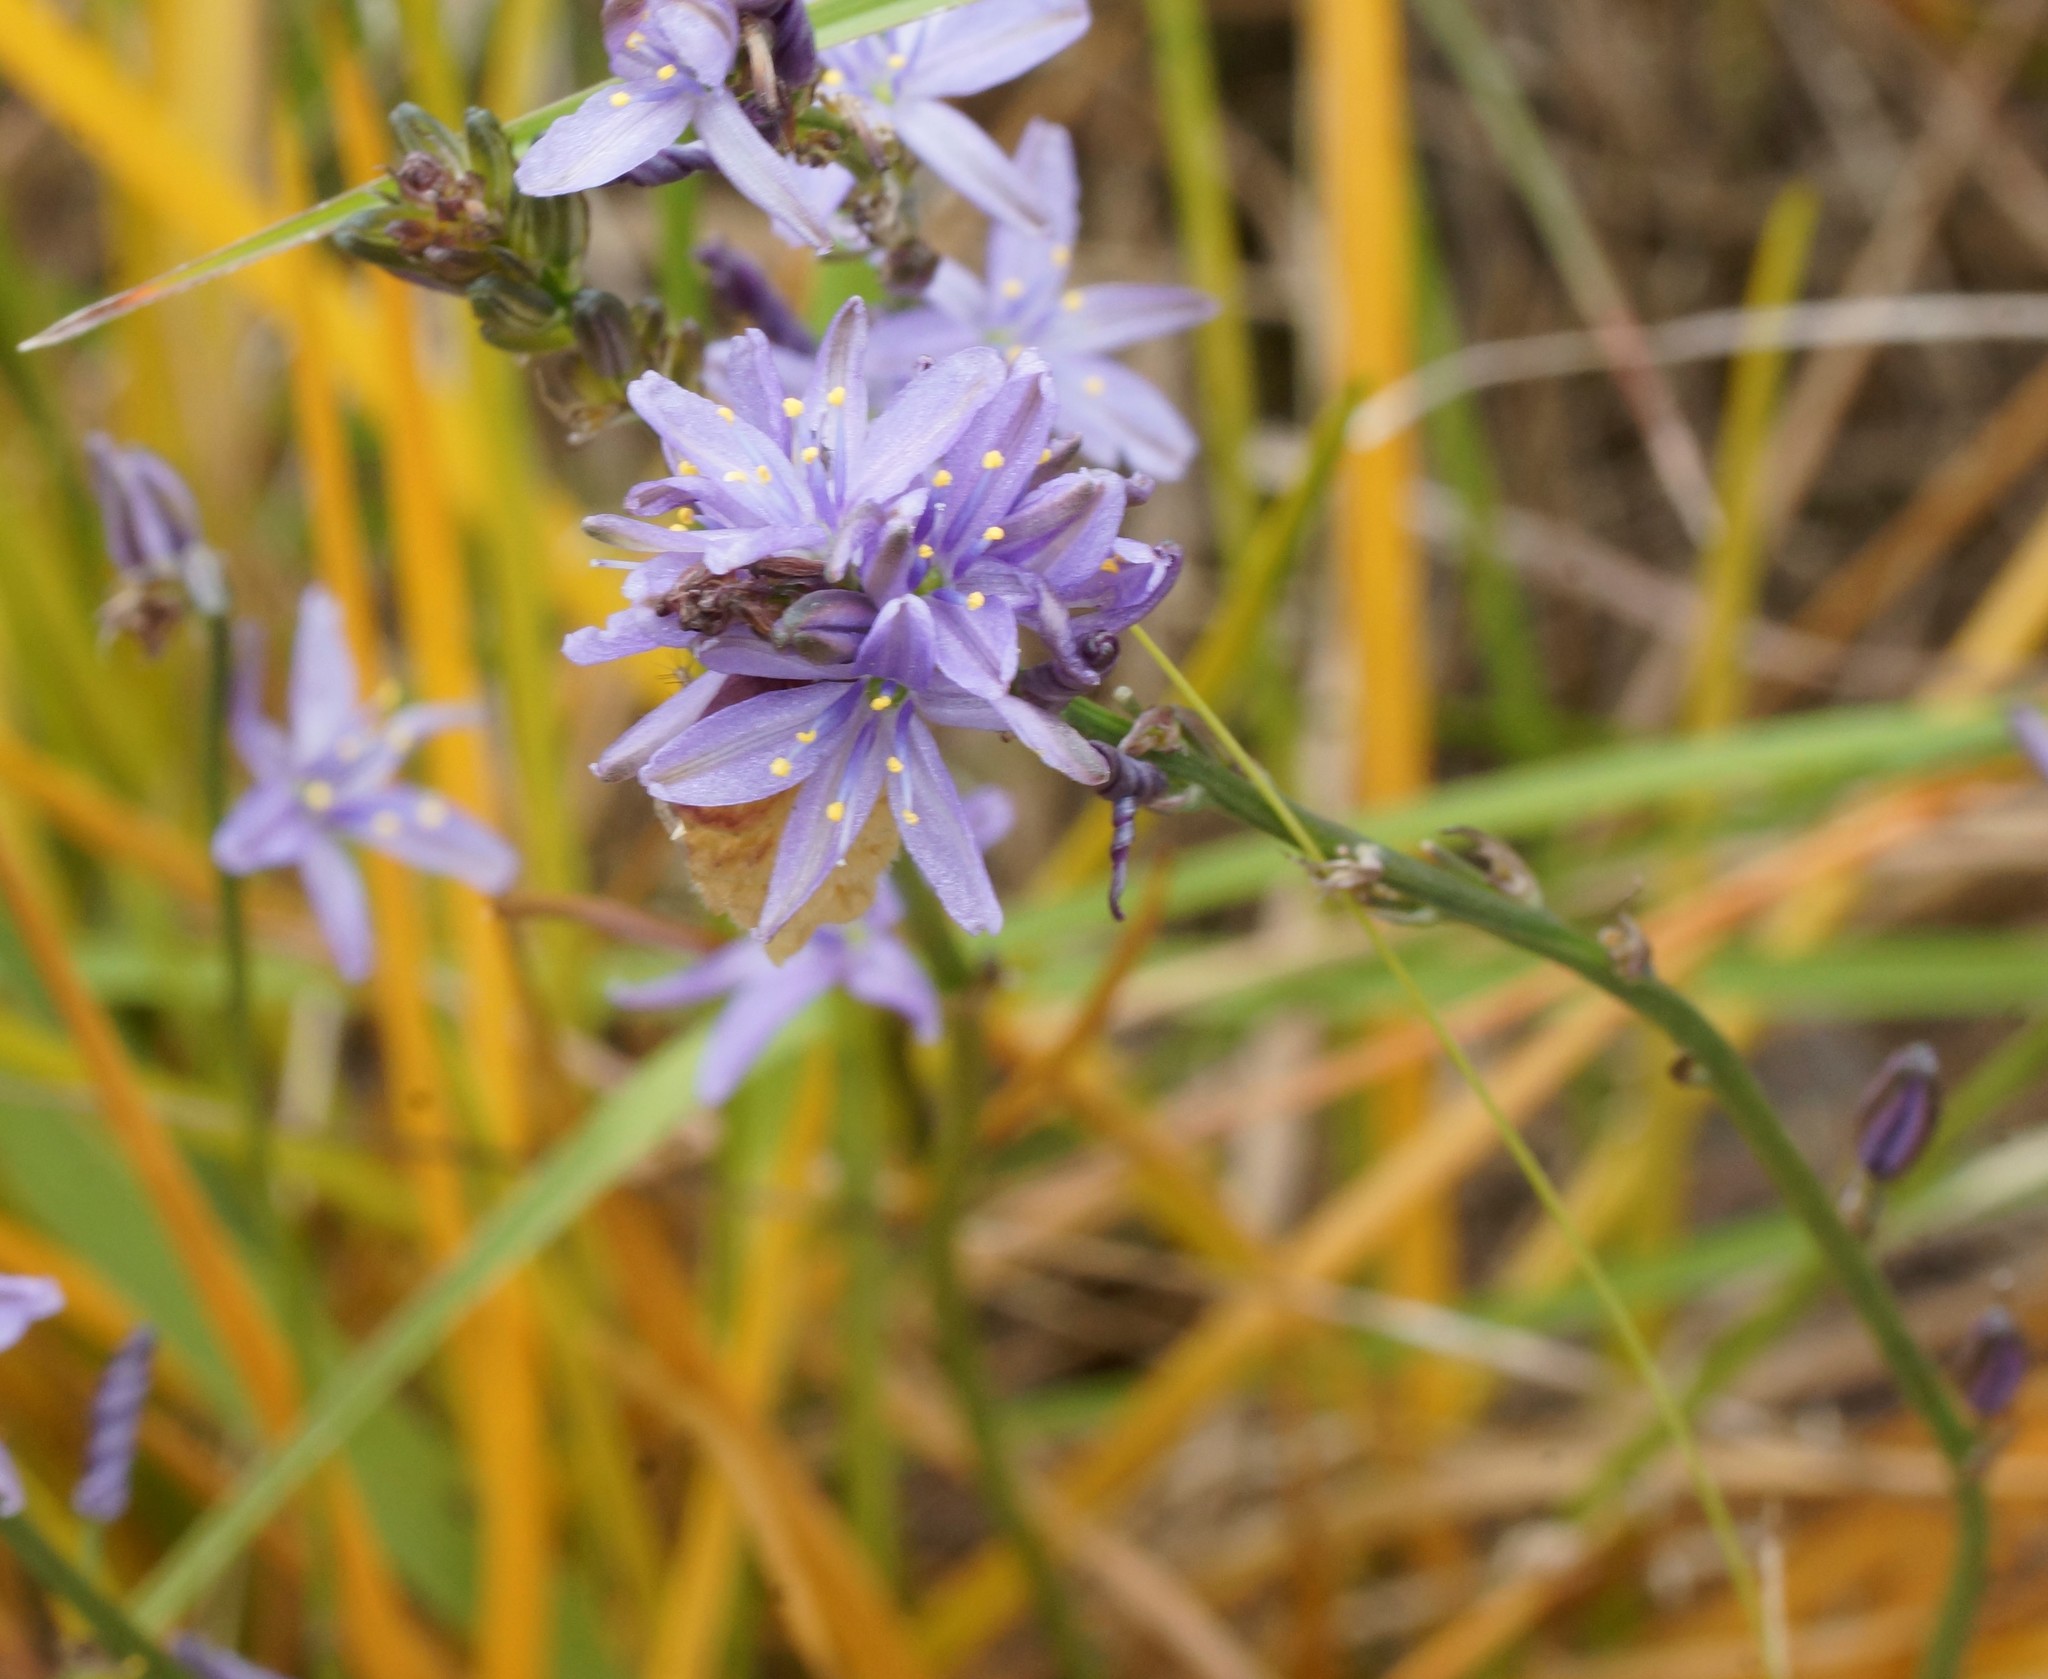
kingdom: Plantae
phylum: Tracheophyta
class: Liliopsida
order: Asparagales
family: Asphodelaceae
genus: Caesia
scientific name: Caesia calliantha
